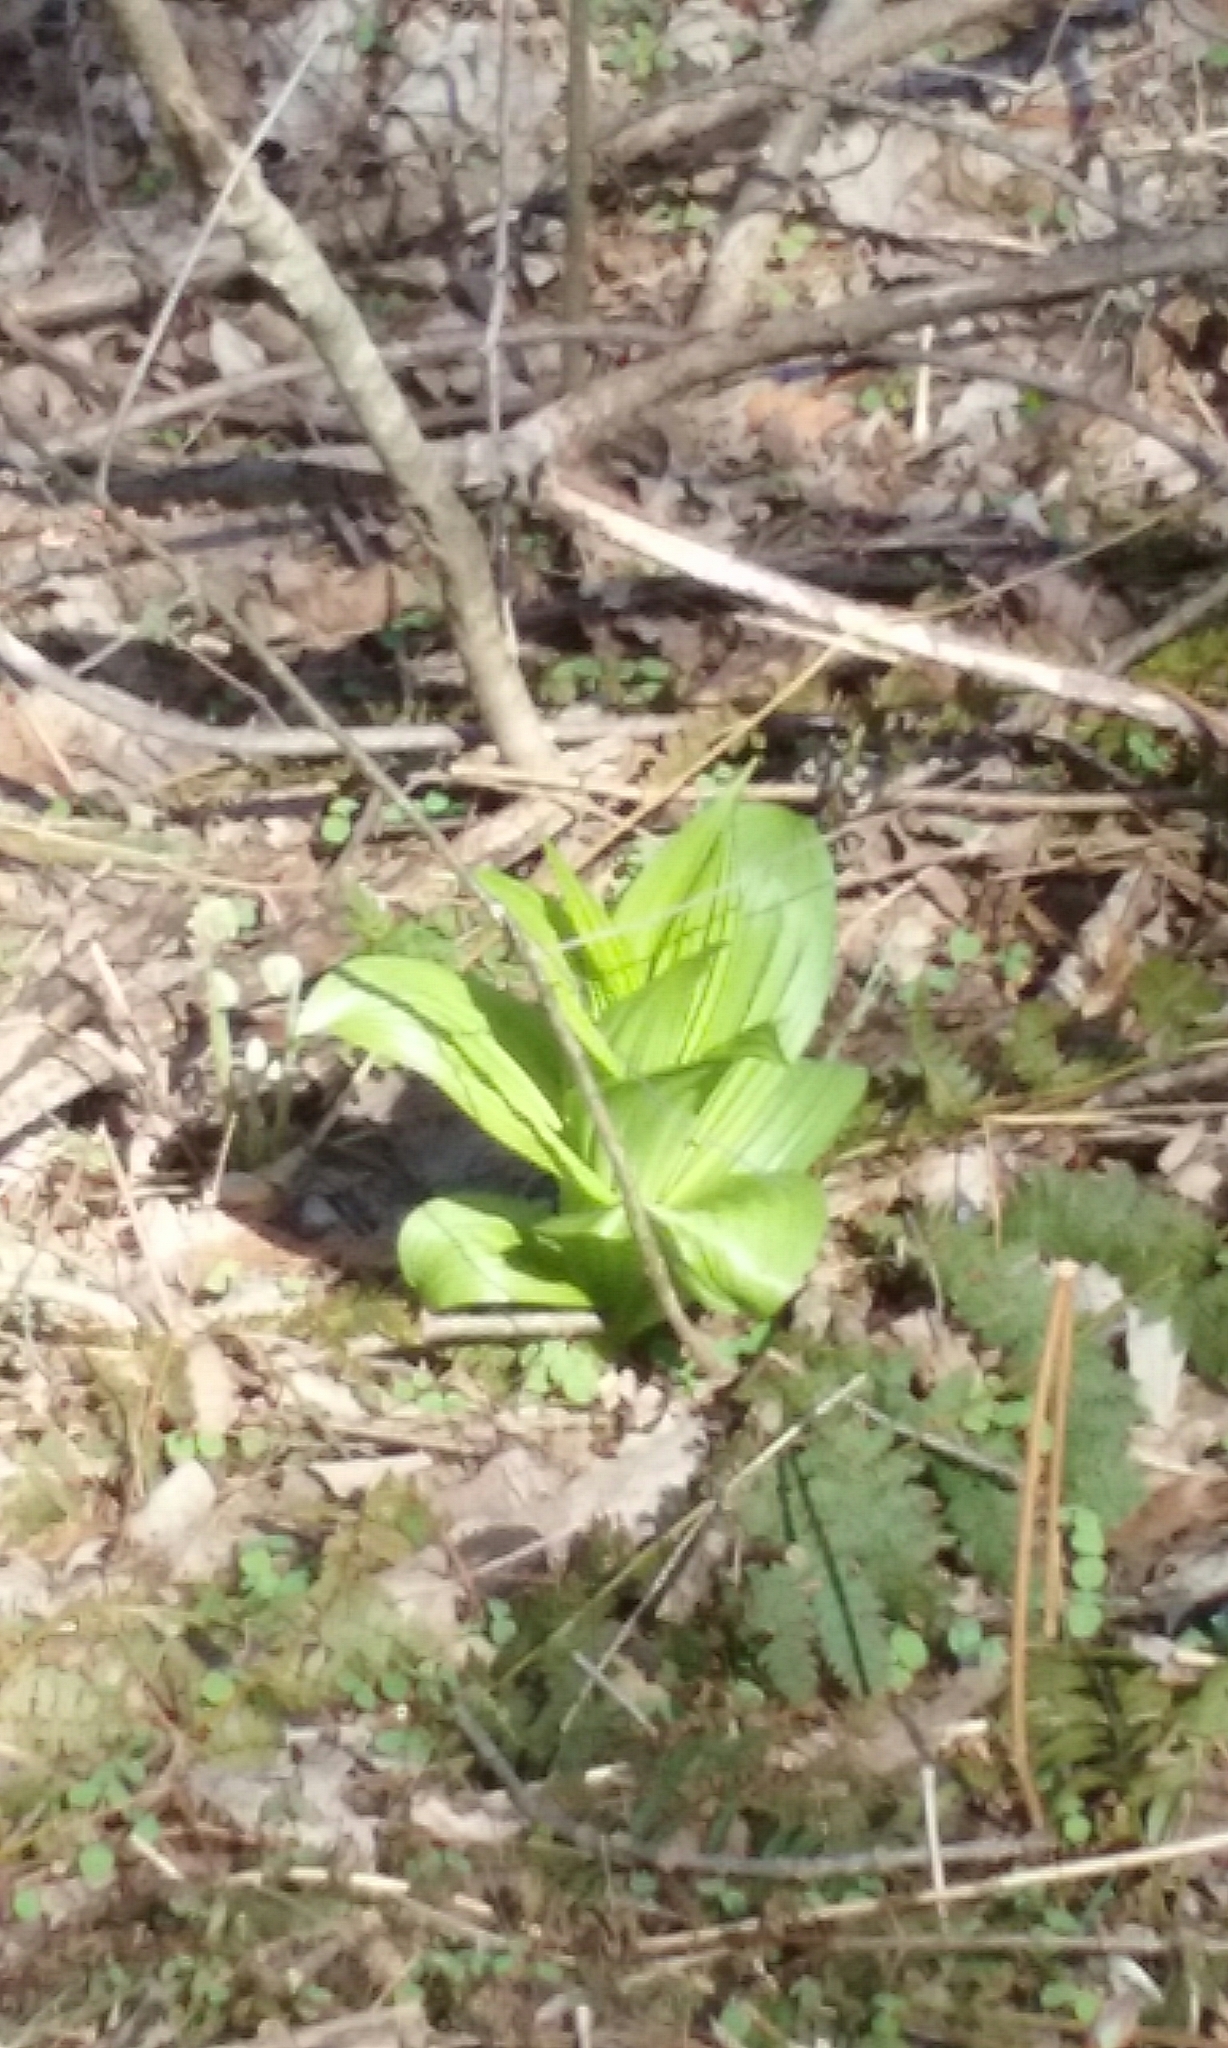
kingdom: Plantae
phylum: Tracheophyta
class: Liliopsida
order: Liliales
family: Melanthiaceae
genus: Veratrum
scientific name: Veratrum viride
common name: American false hellebore
